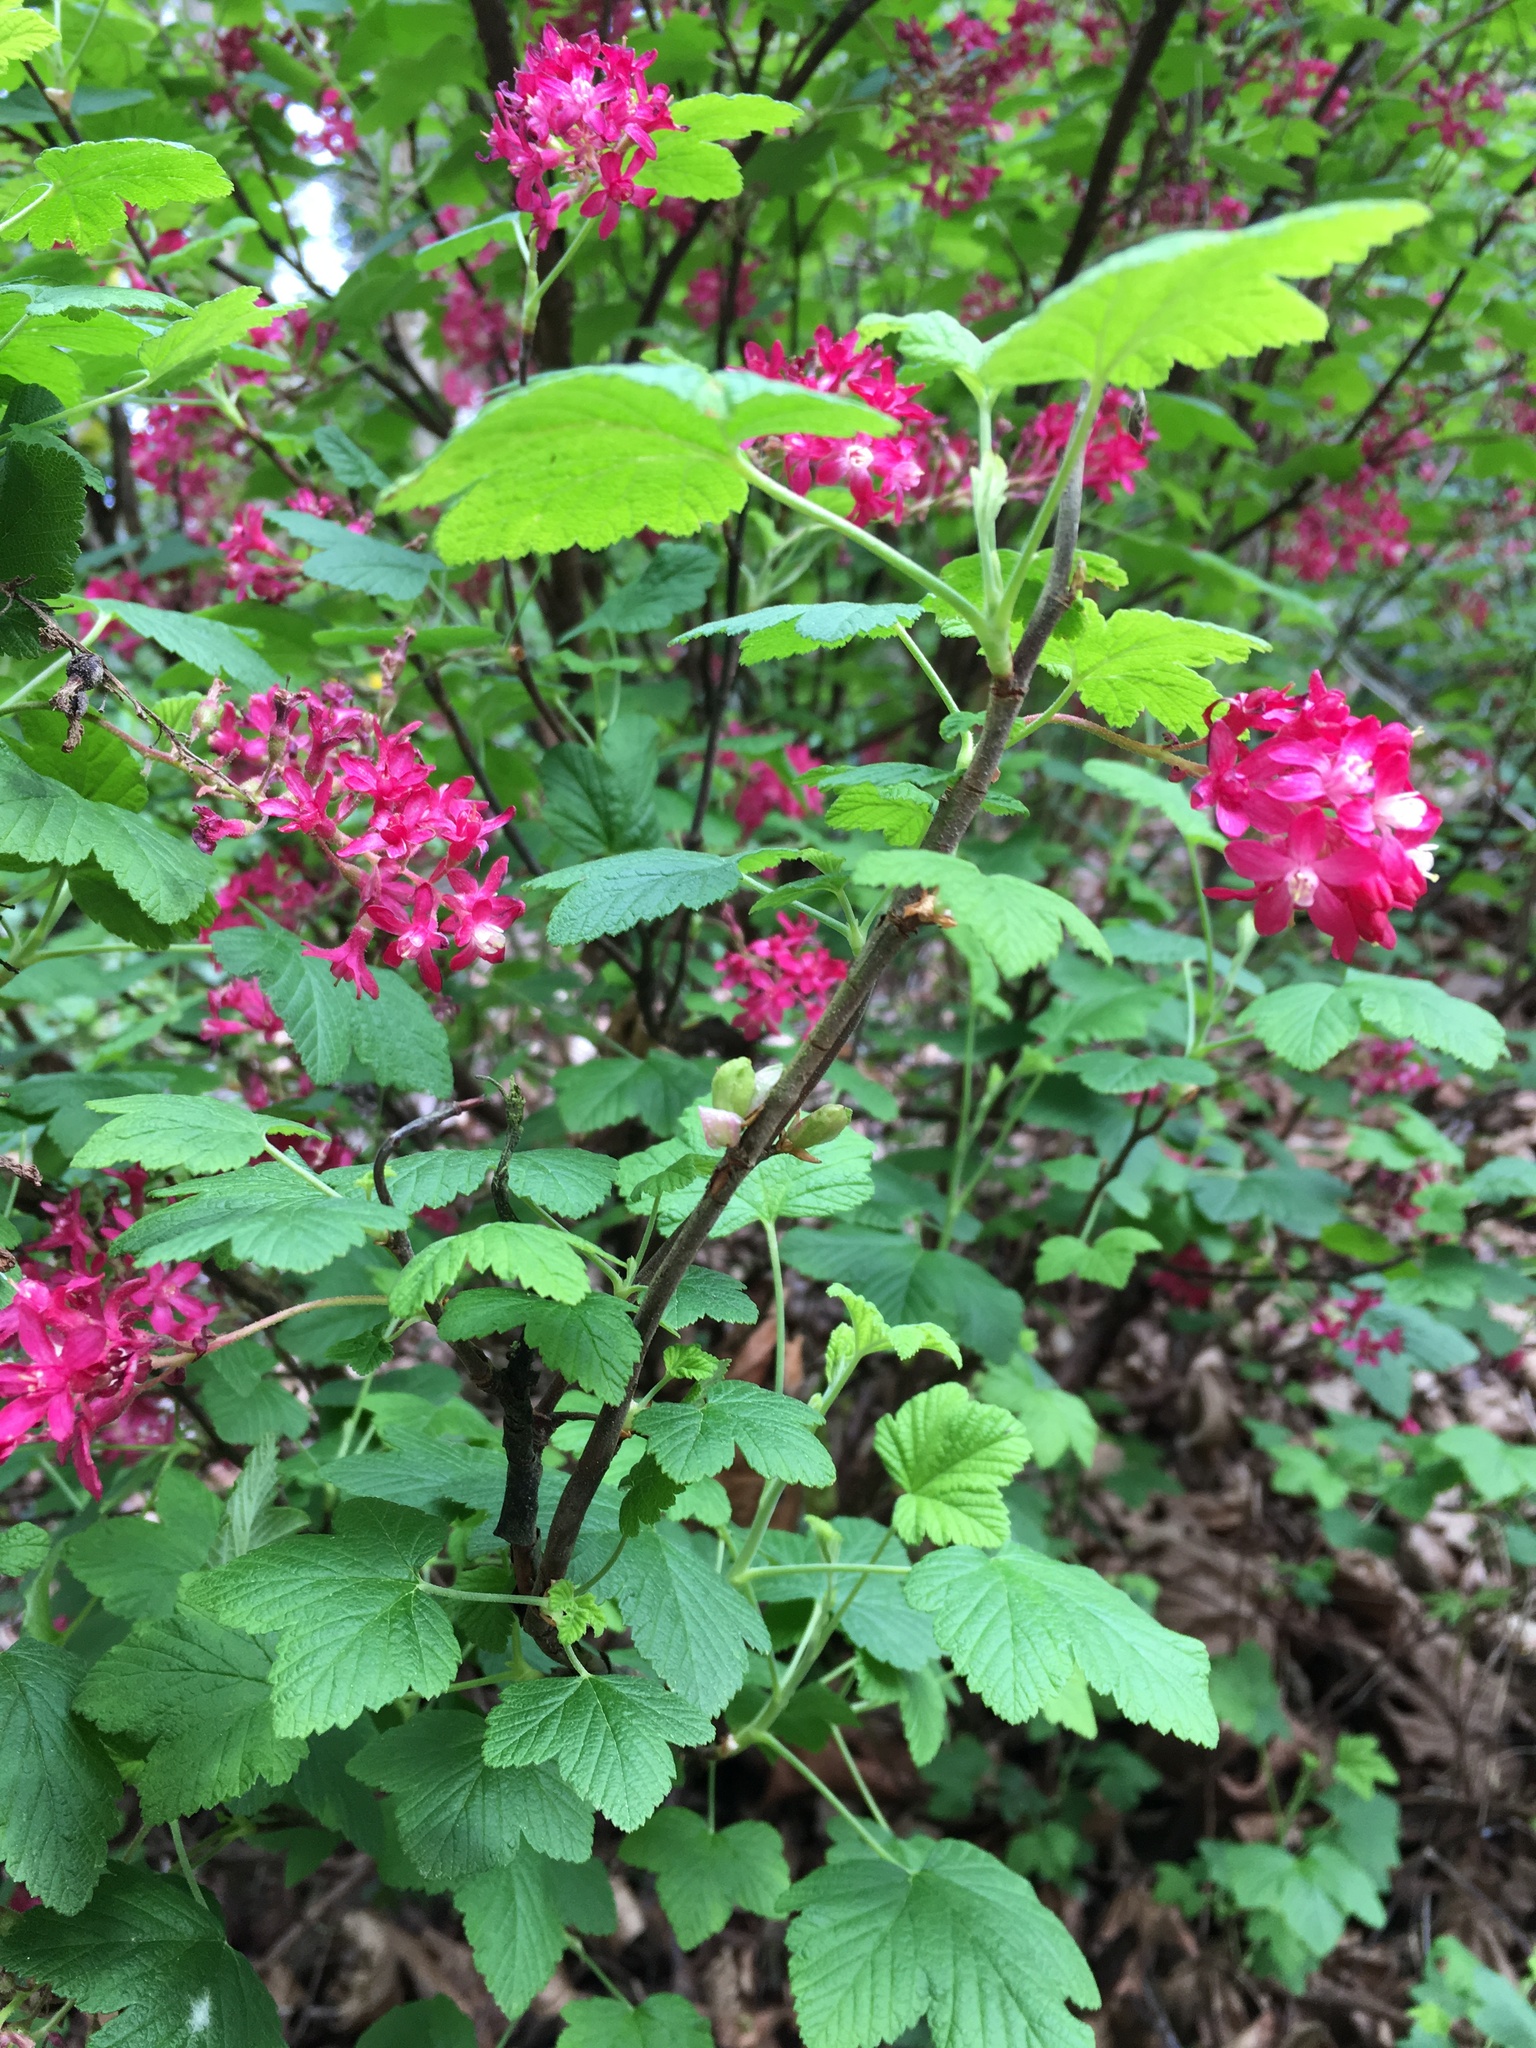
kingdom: Plantae
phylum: Tracheophyta
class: Magnoliopsida
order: Saxifragales
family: Grossulariaceae
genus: Ribes
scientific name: Ribes sanguineum
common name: Flowering currant
